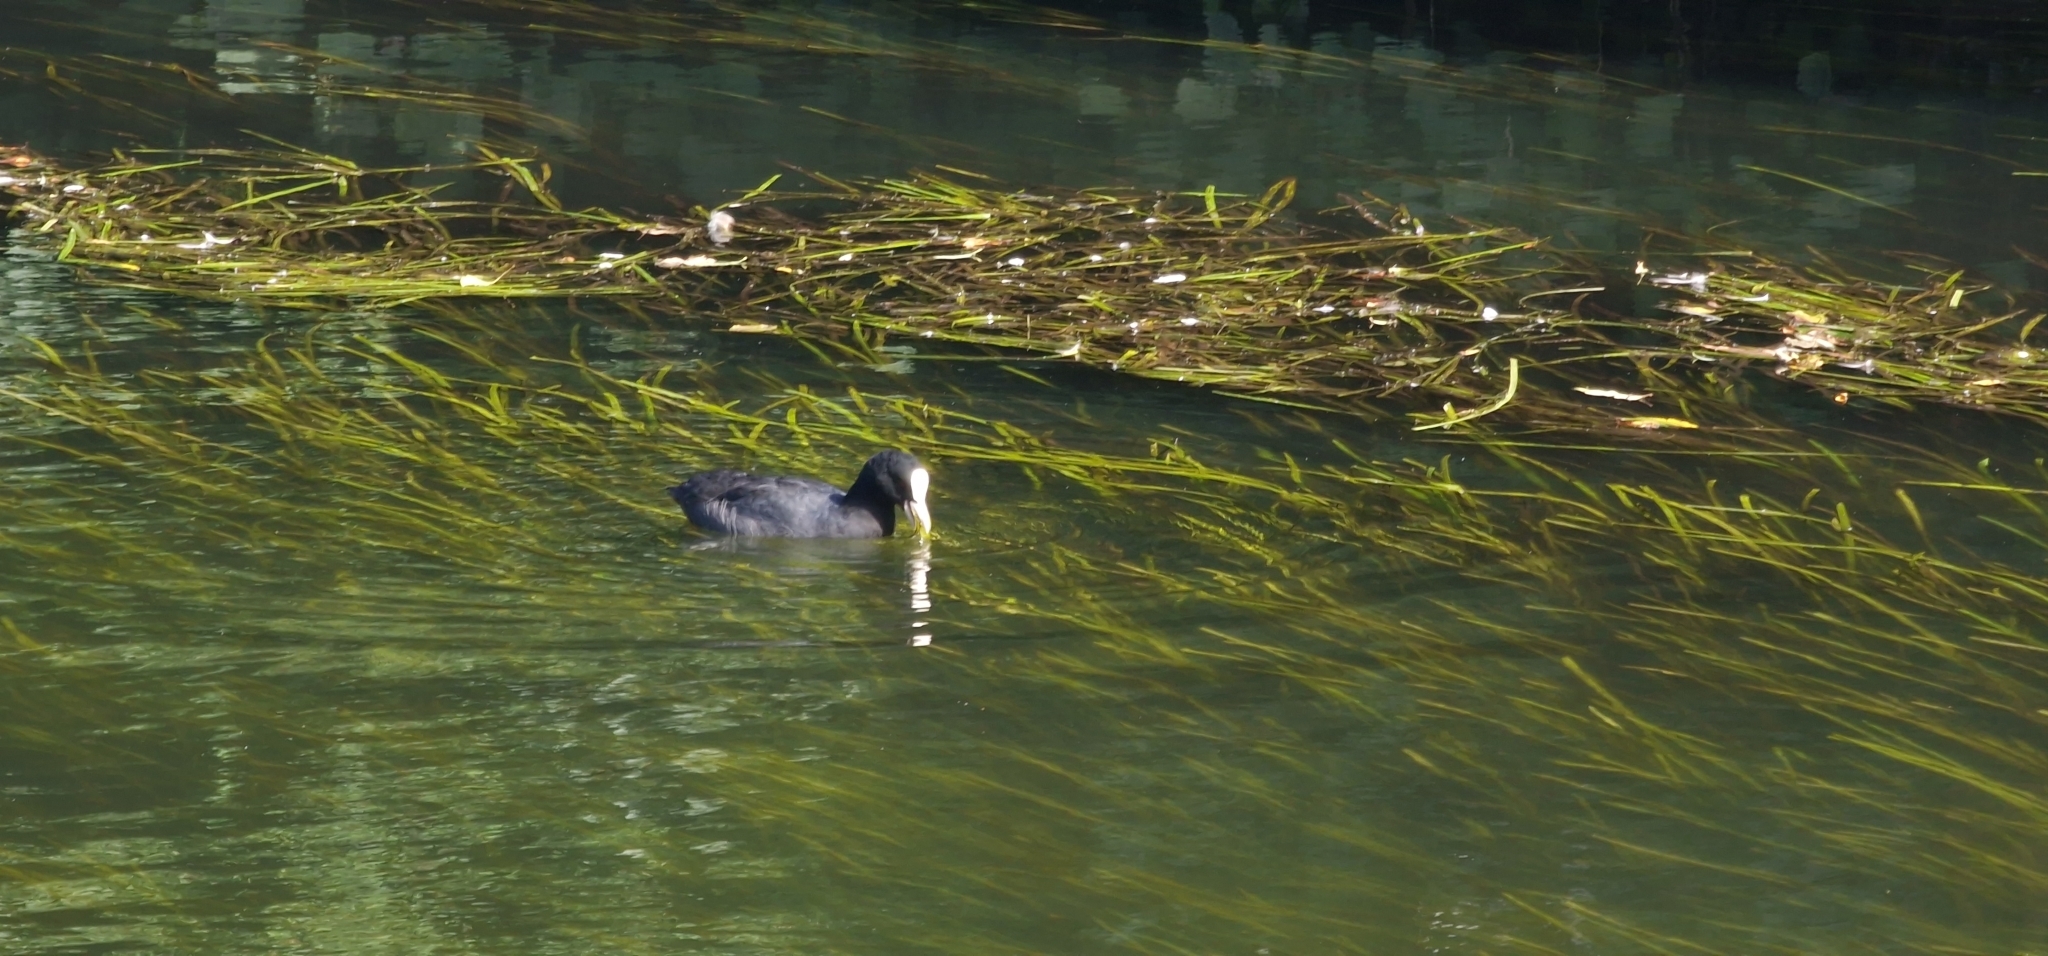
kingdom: Animalia
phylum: Chordata
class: Aves
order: Gruiformes
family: Rallidae
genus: Fulica
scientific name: Fulica atra
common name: Eurasian coot
